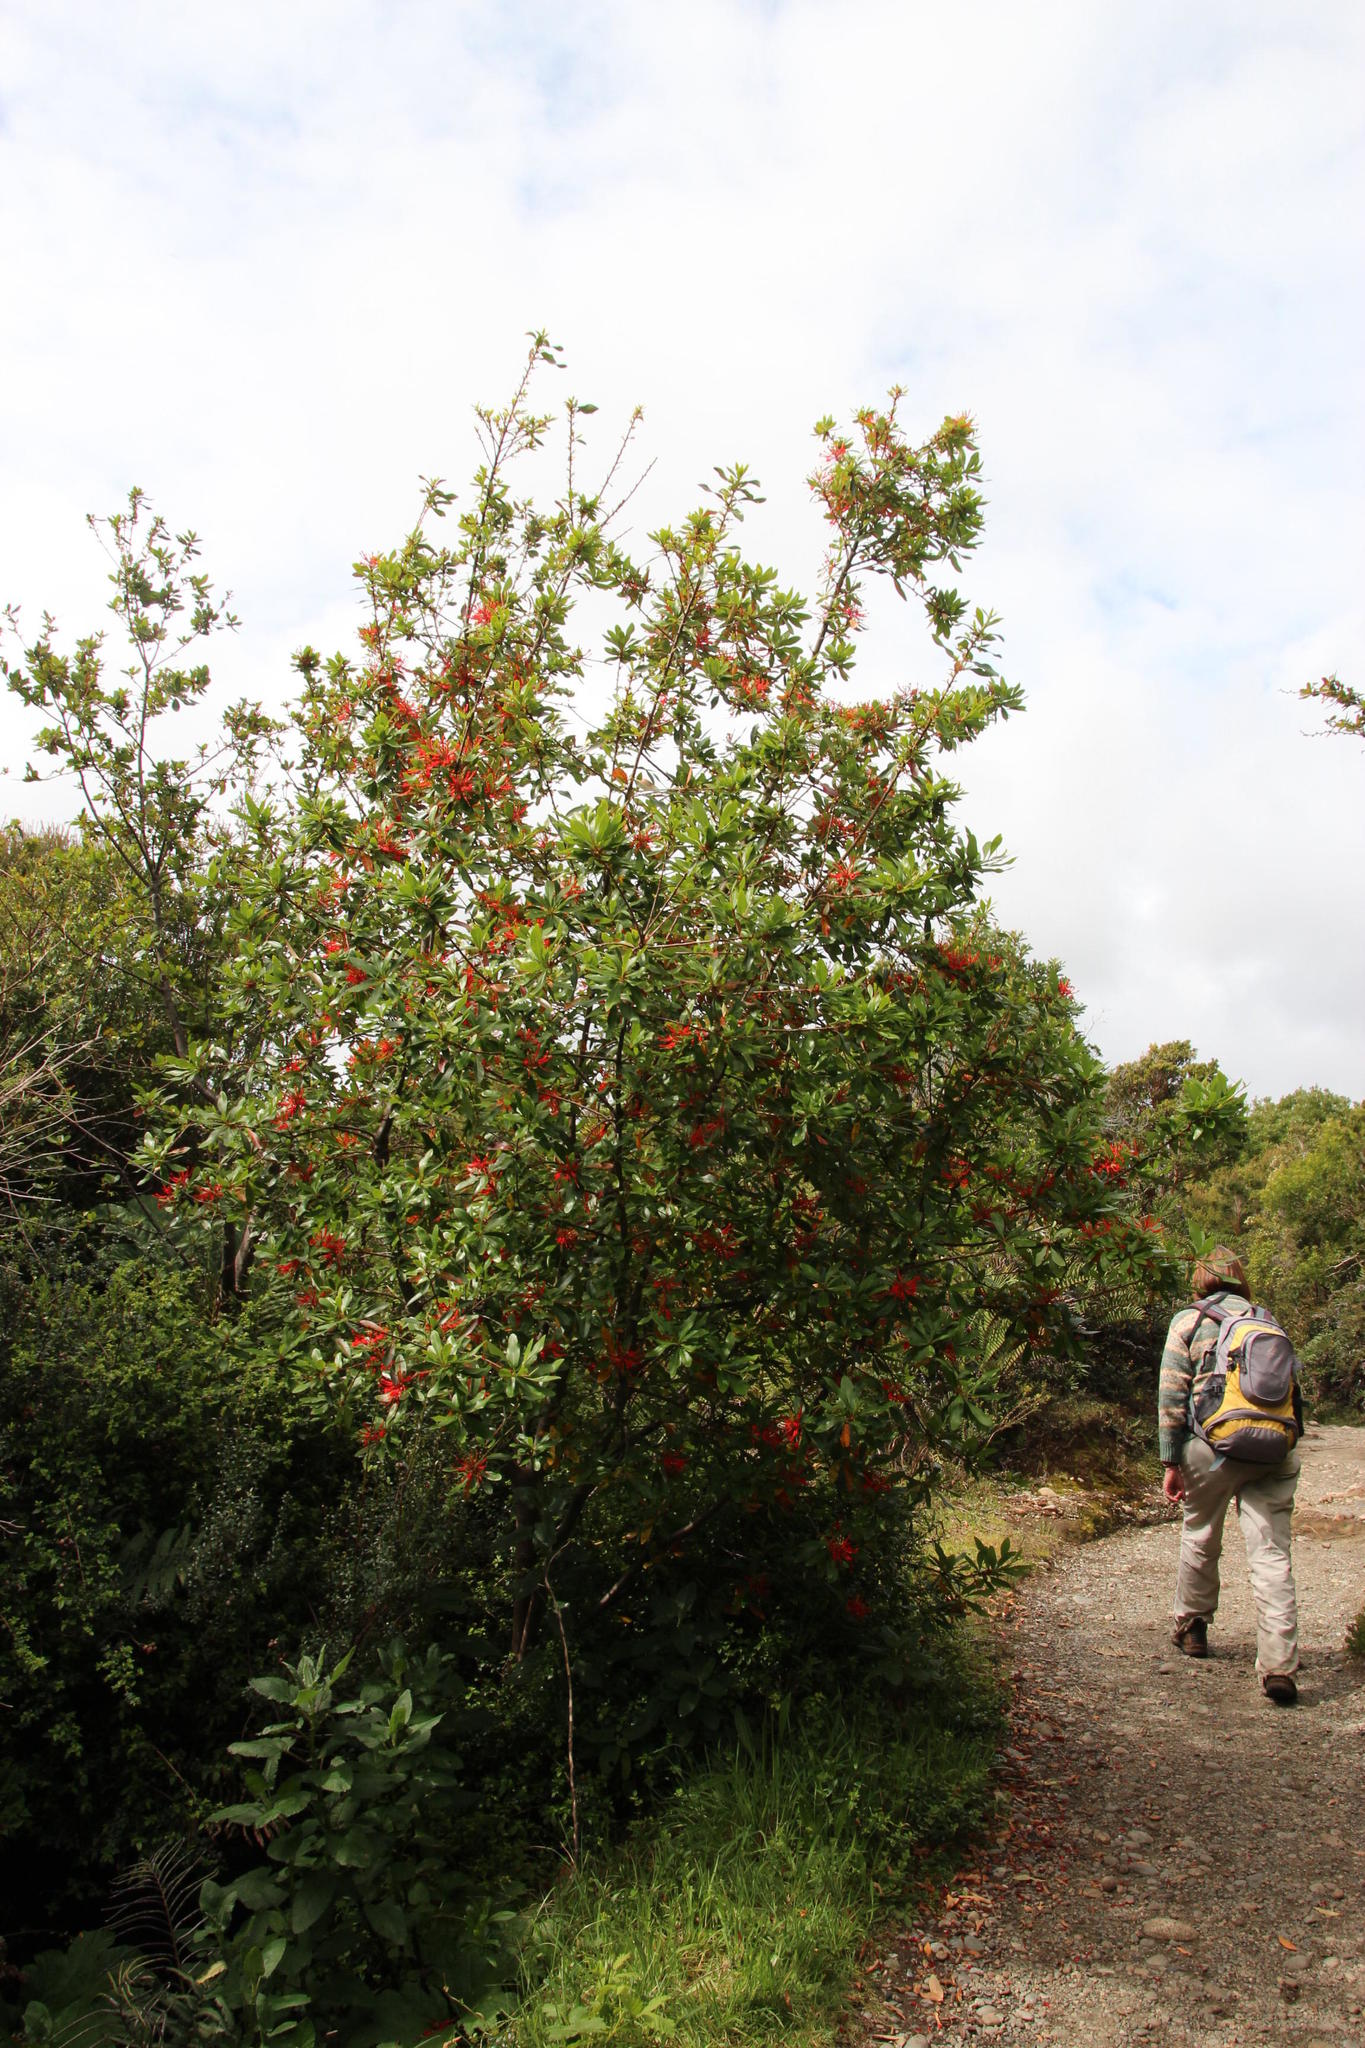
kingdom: Plantae
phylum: Tracheophyta
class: Magnoliopsida
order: Proteales
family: Proteaceae
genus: Embothrium
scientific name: Embothrium coccineum
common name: Chilean firebush
